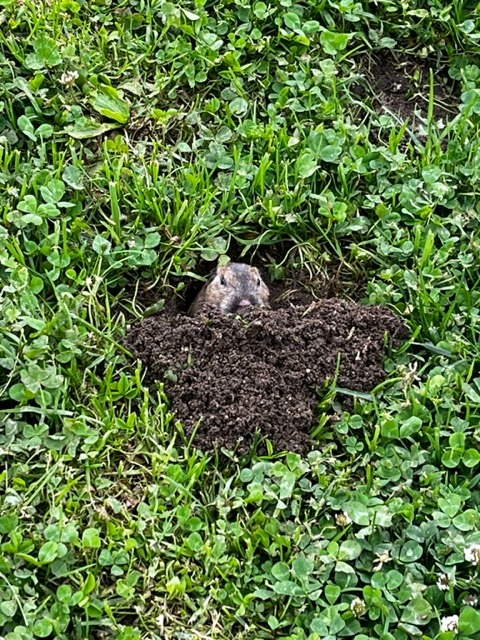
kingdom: Animalia
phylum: Chordata
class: Mammalia
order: Rodentia
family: Geomyidae
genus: Thomomys
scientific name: Thomomys bottae
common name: Botta's pocket gopher
